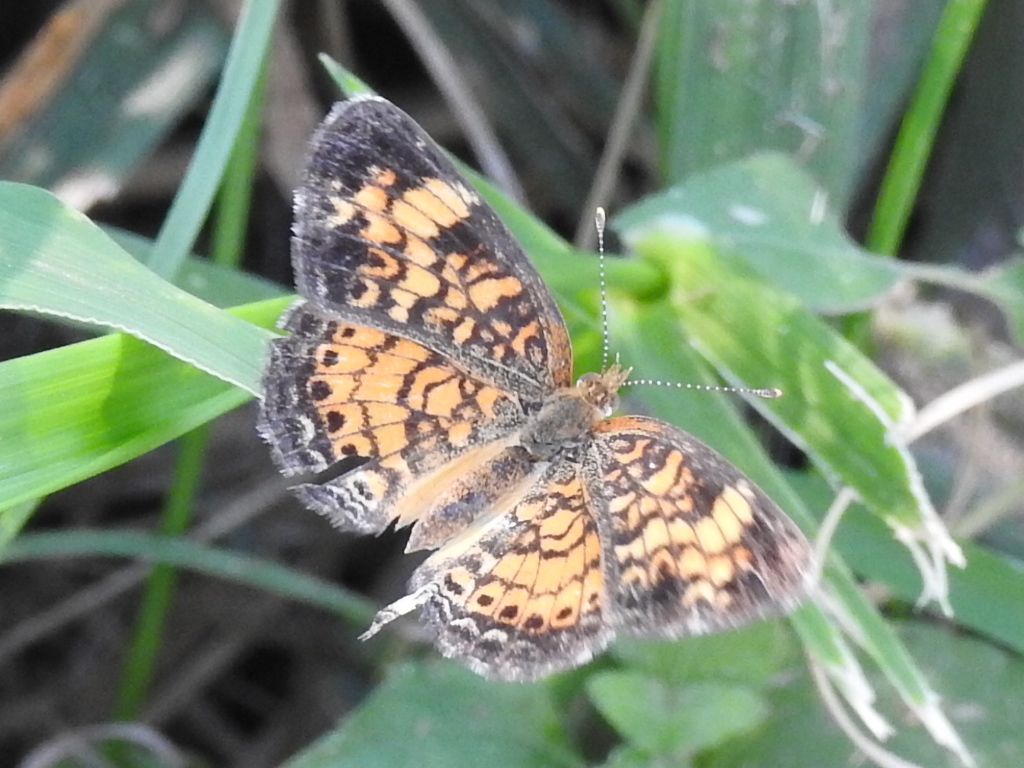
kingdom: Animalia
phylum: Arthropoda
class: Insecta
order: Lepidoptera
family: Nymphalidae
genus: Phyciodes
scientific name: Phyciodes tharos
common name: Pearl crescent
